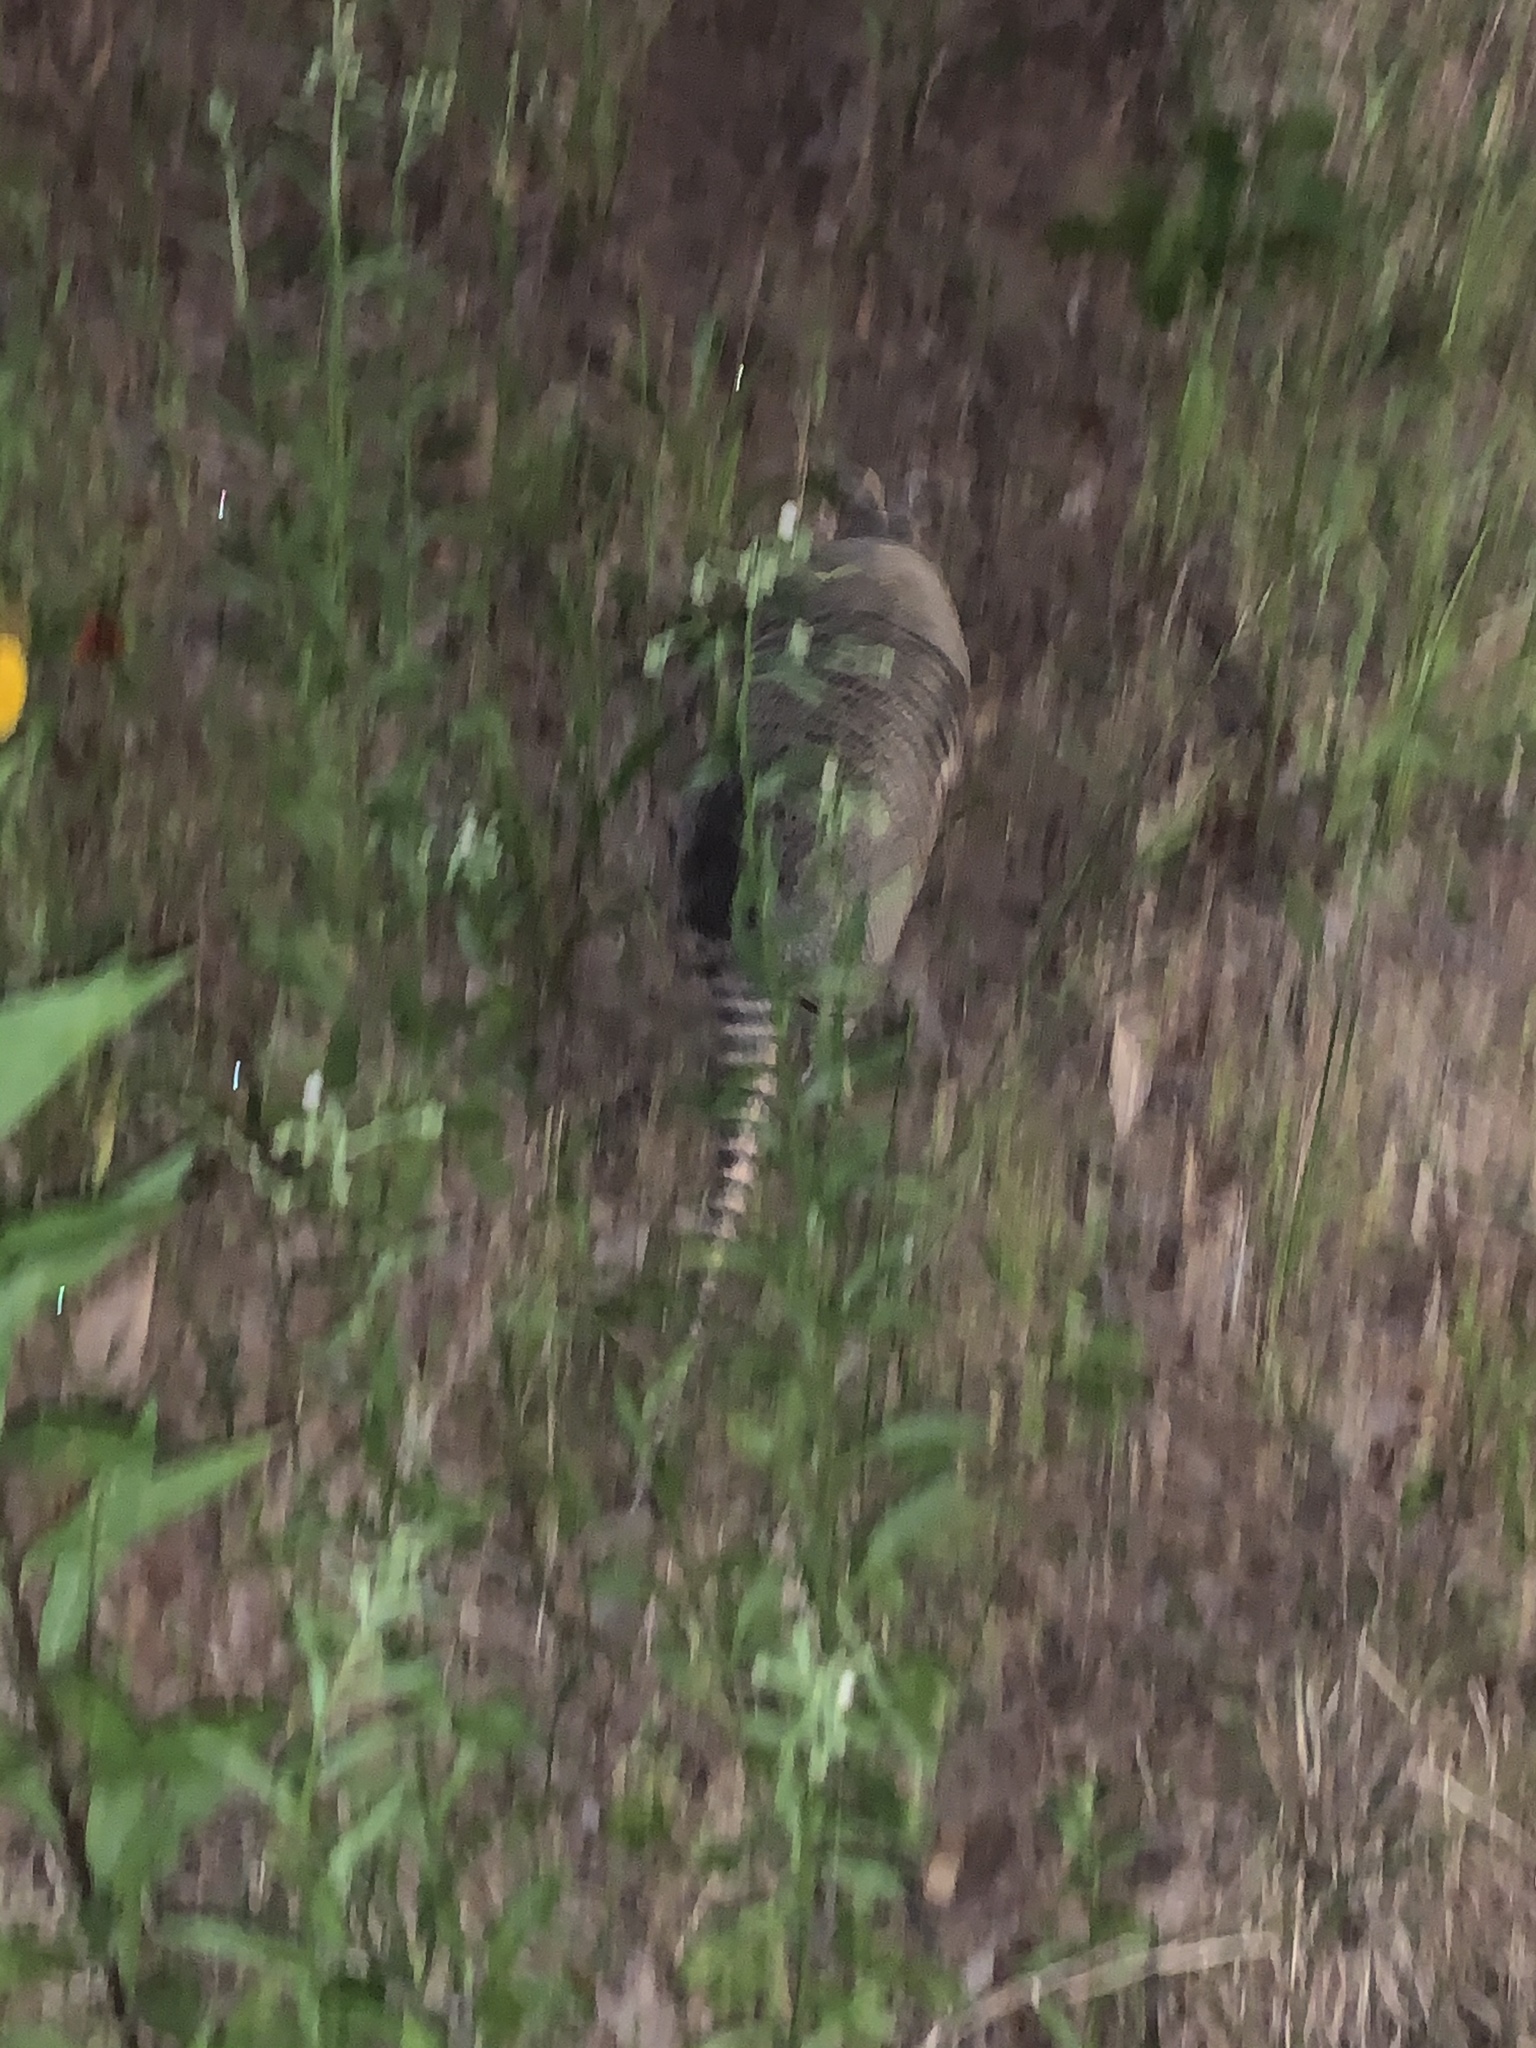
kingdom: Animalia
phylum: Chordata
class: Mammalia
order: Cingulata
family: Dasypodidae
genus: Dasypus
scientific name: Dasypus novemcinctus
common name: Nine-banded armadillo
